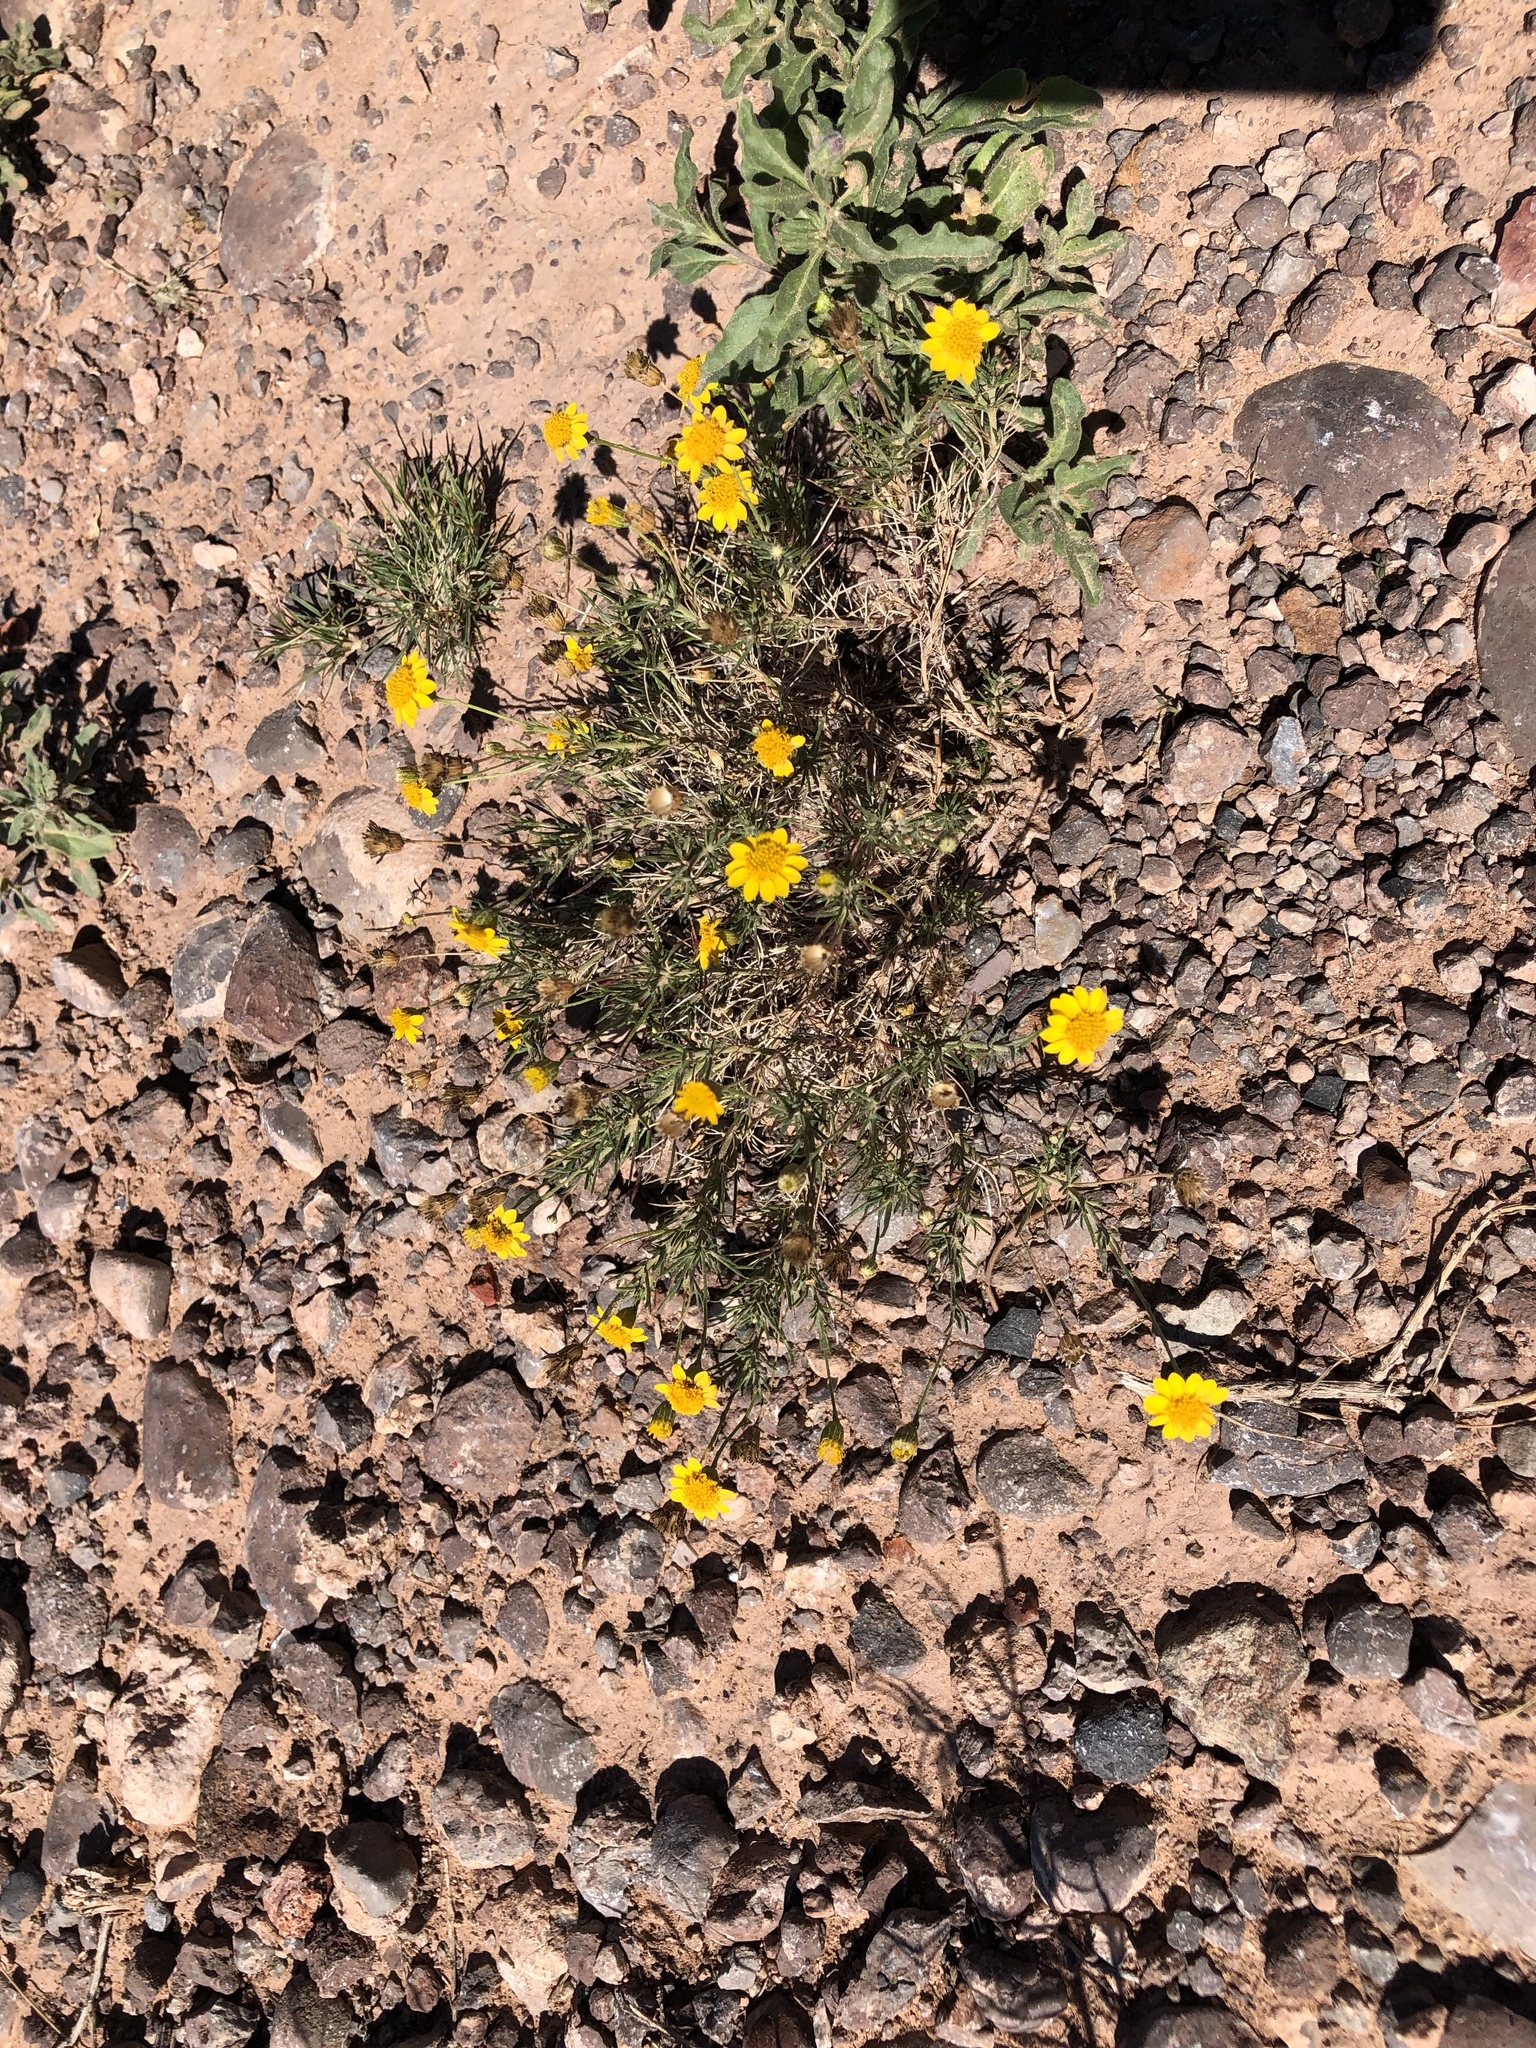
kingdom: Plantae
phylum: Tracheophyta
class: Magnoliopsida
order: Asterales
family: Asteraceae
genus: Thymophylla
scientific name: Thymophylla pentachaeta
